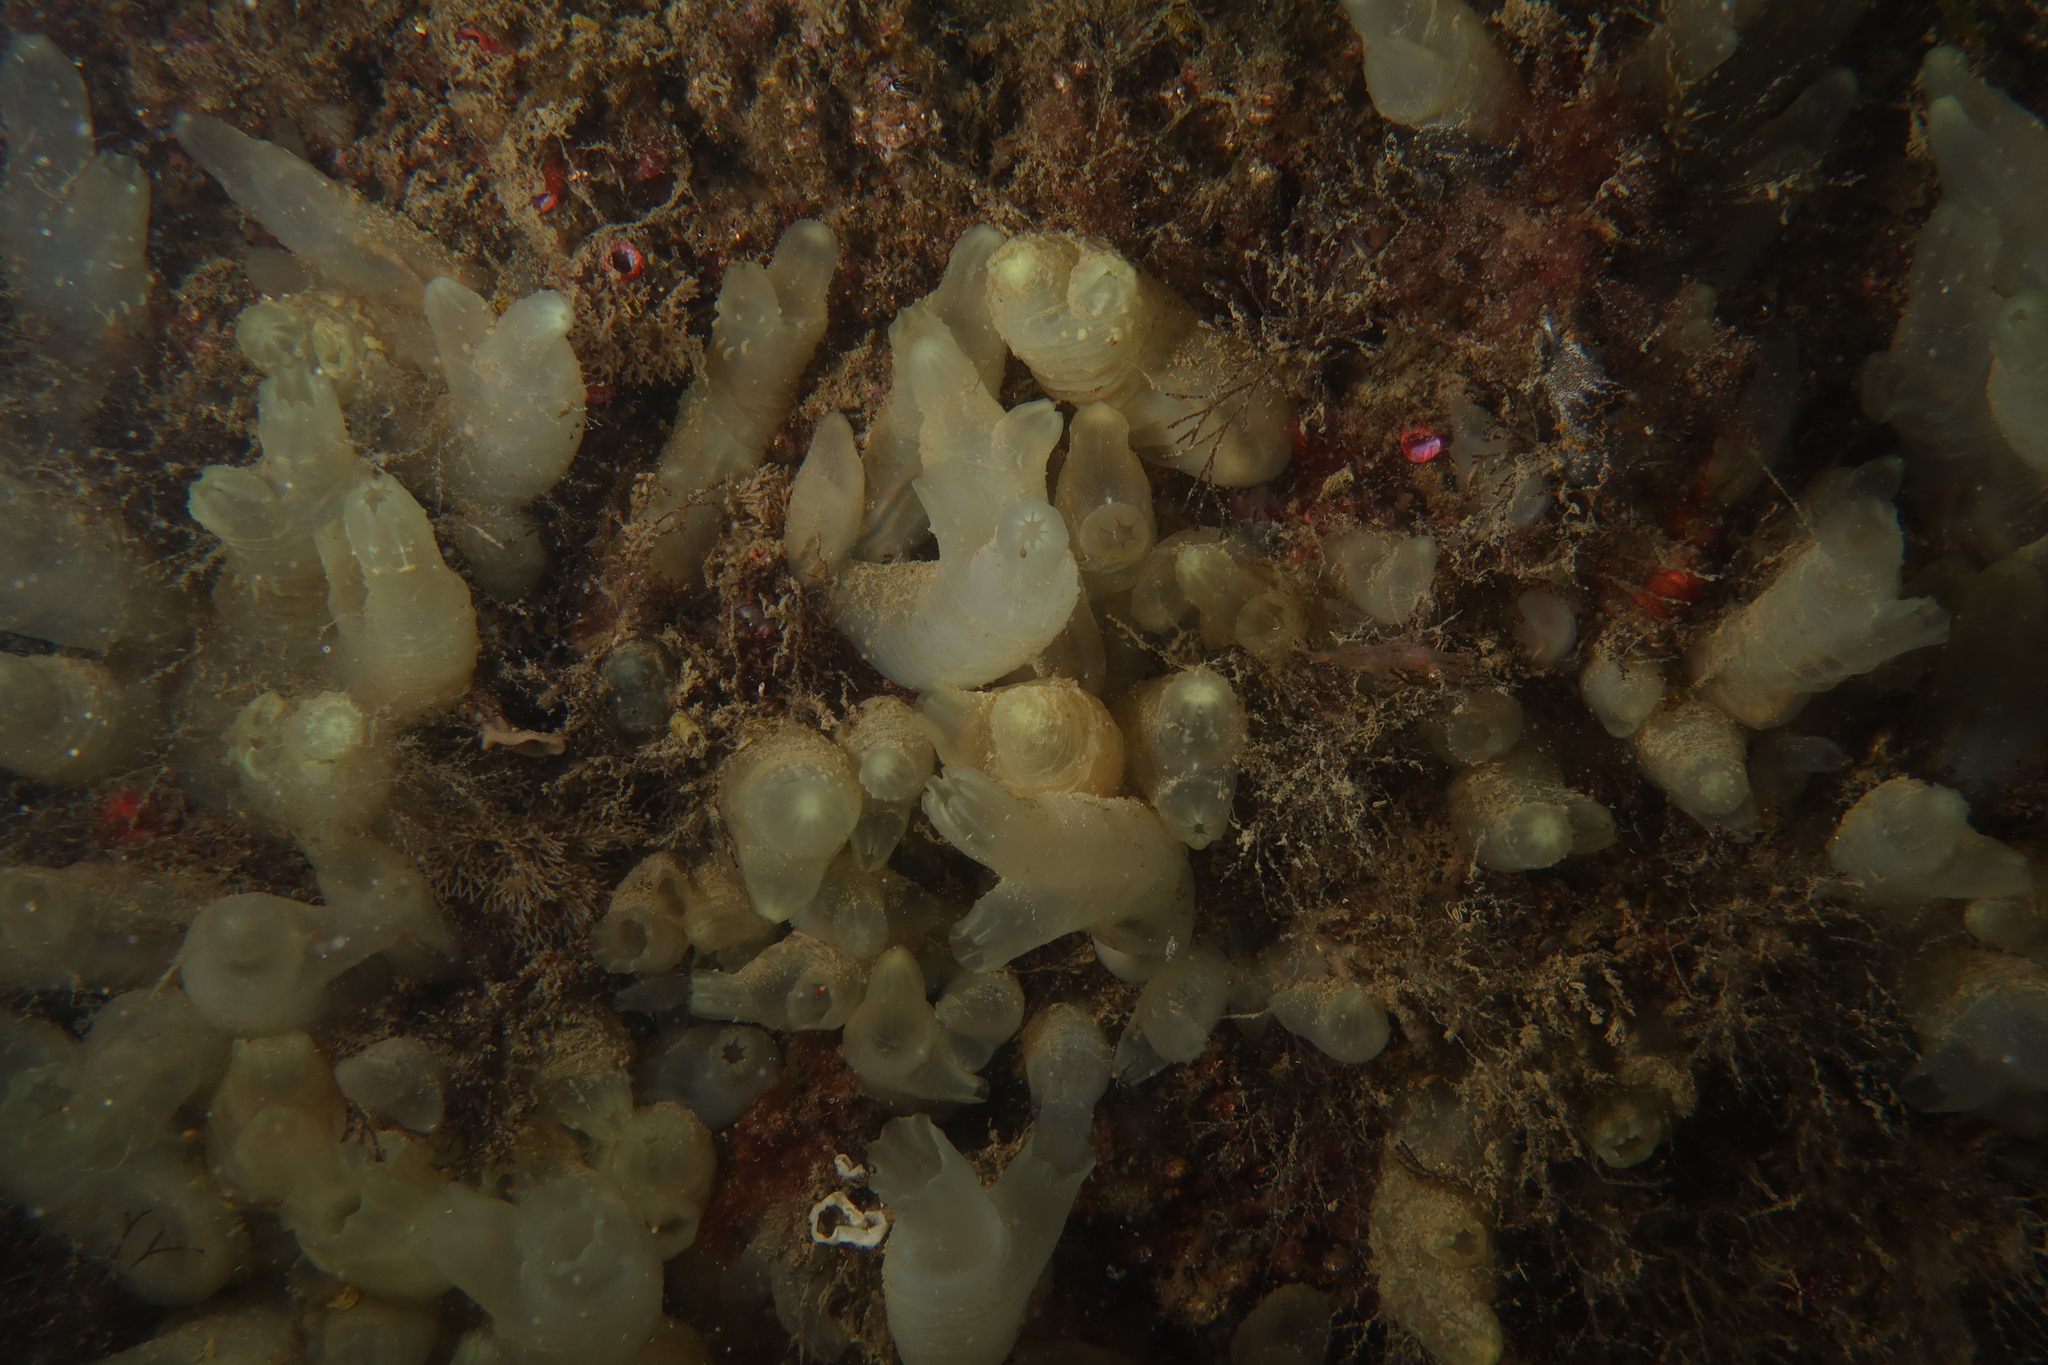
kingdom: Animalia
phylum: Chordata
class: Ascidiacea
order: Phlebobranchia
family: Cionidae
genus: Ciona
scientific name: Ciona robusta
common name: Tunicate
